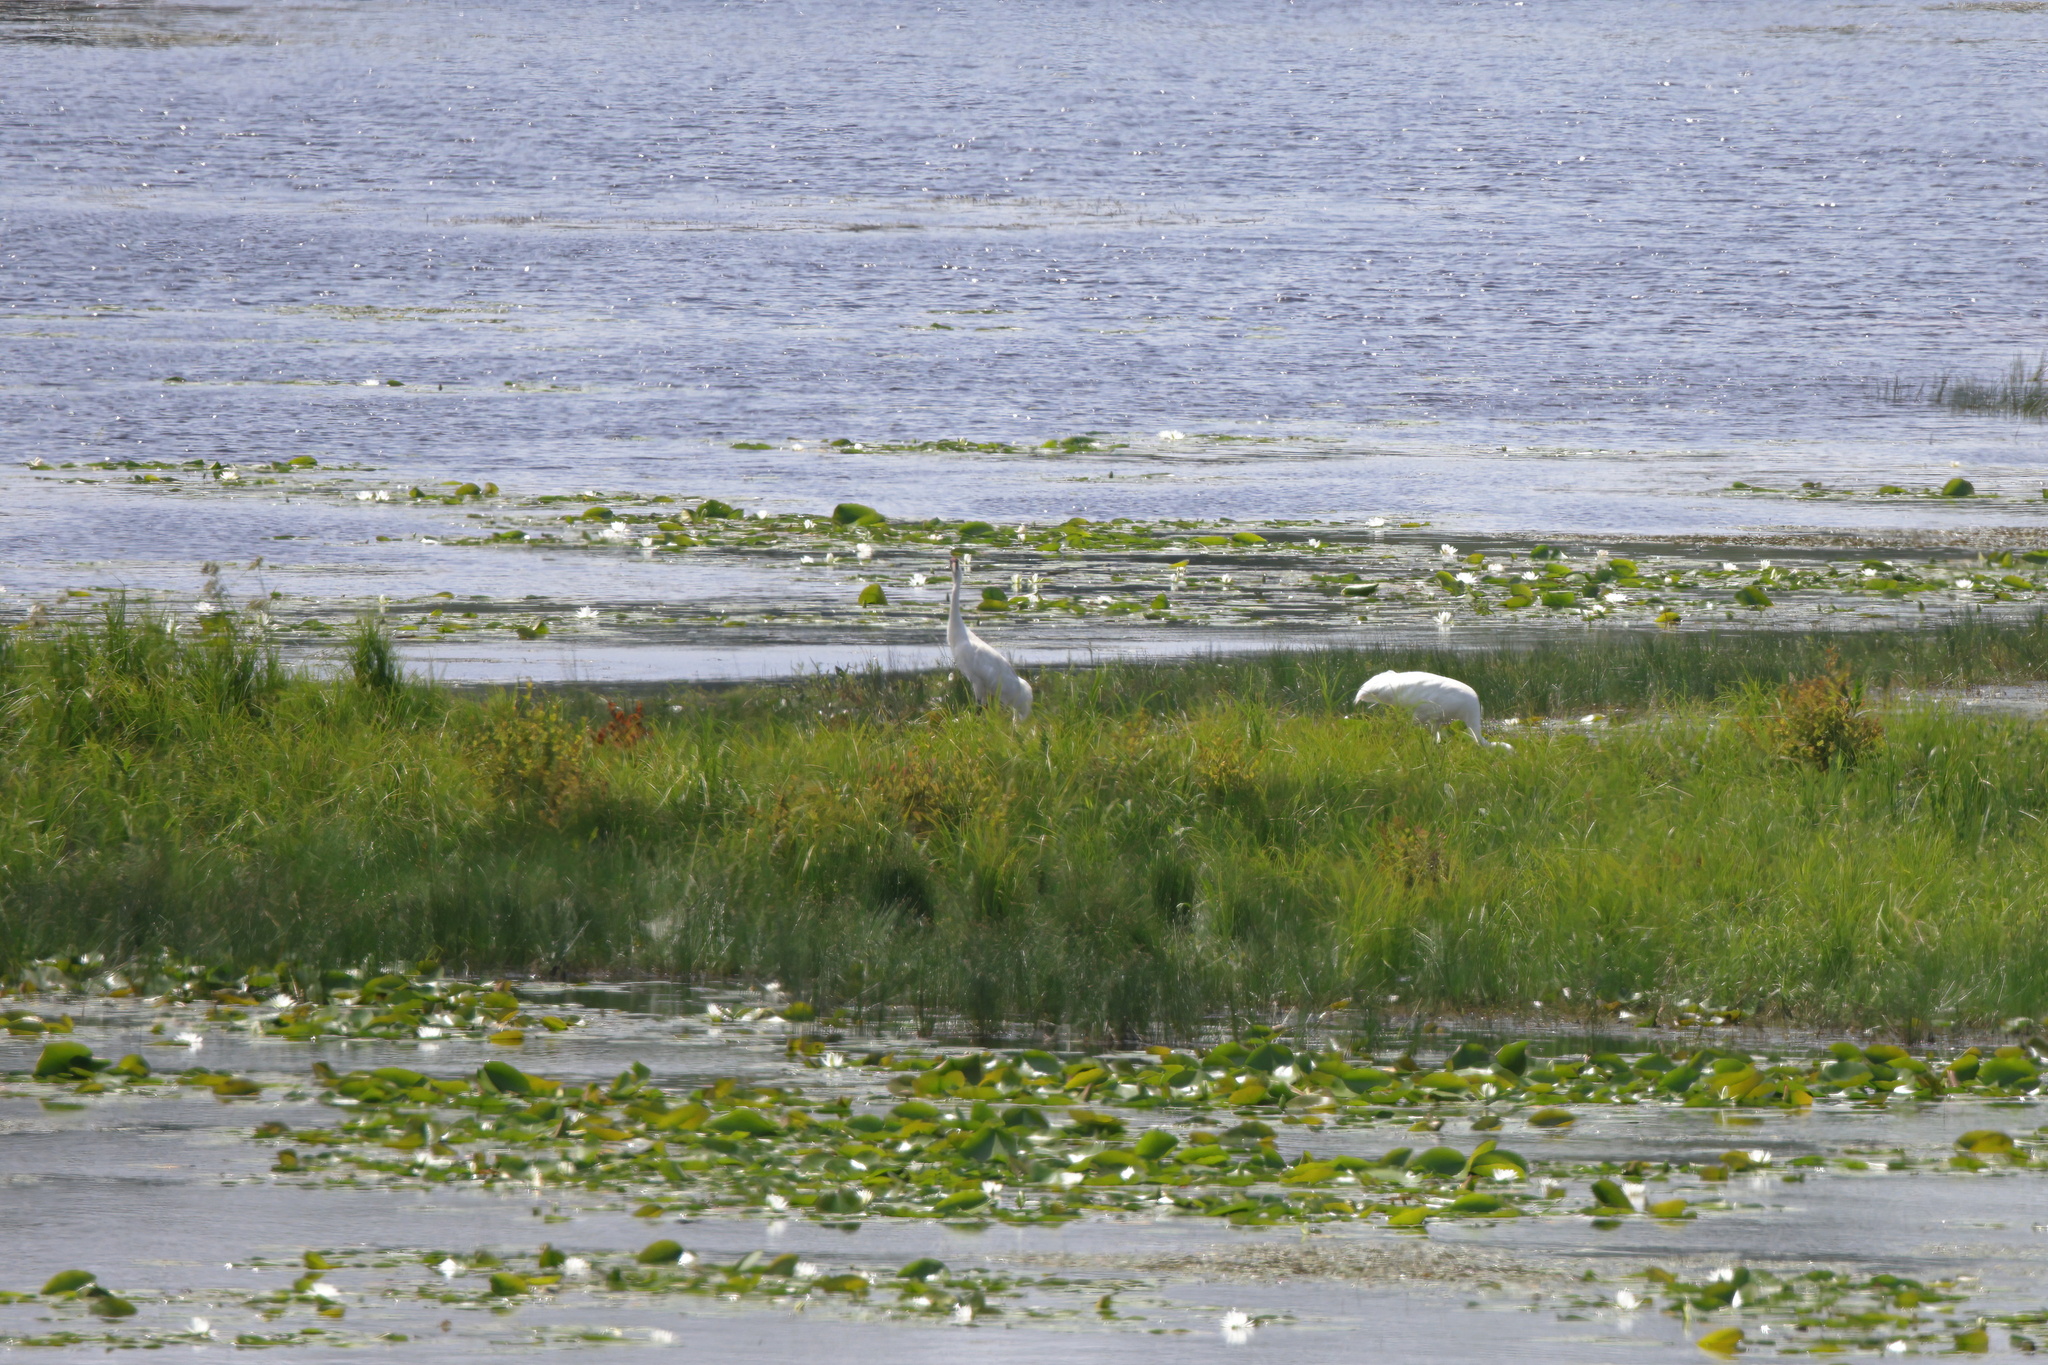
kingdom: Animalia
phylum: Chordata
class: Aves
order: Gruiformes
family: Gruidae
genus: Grus
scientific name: Grus americana
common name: Whooping crane
